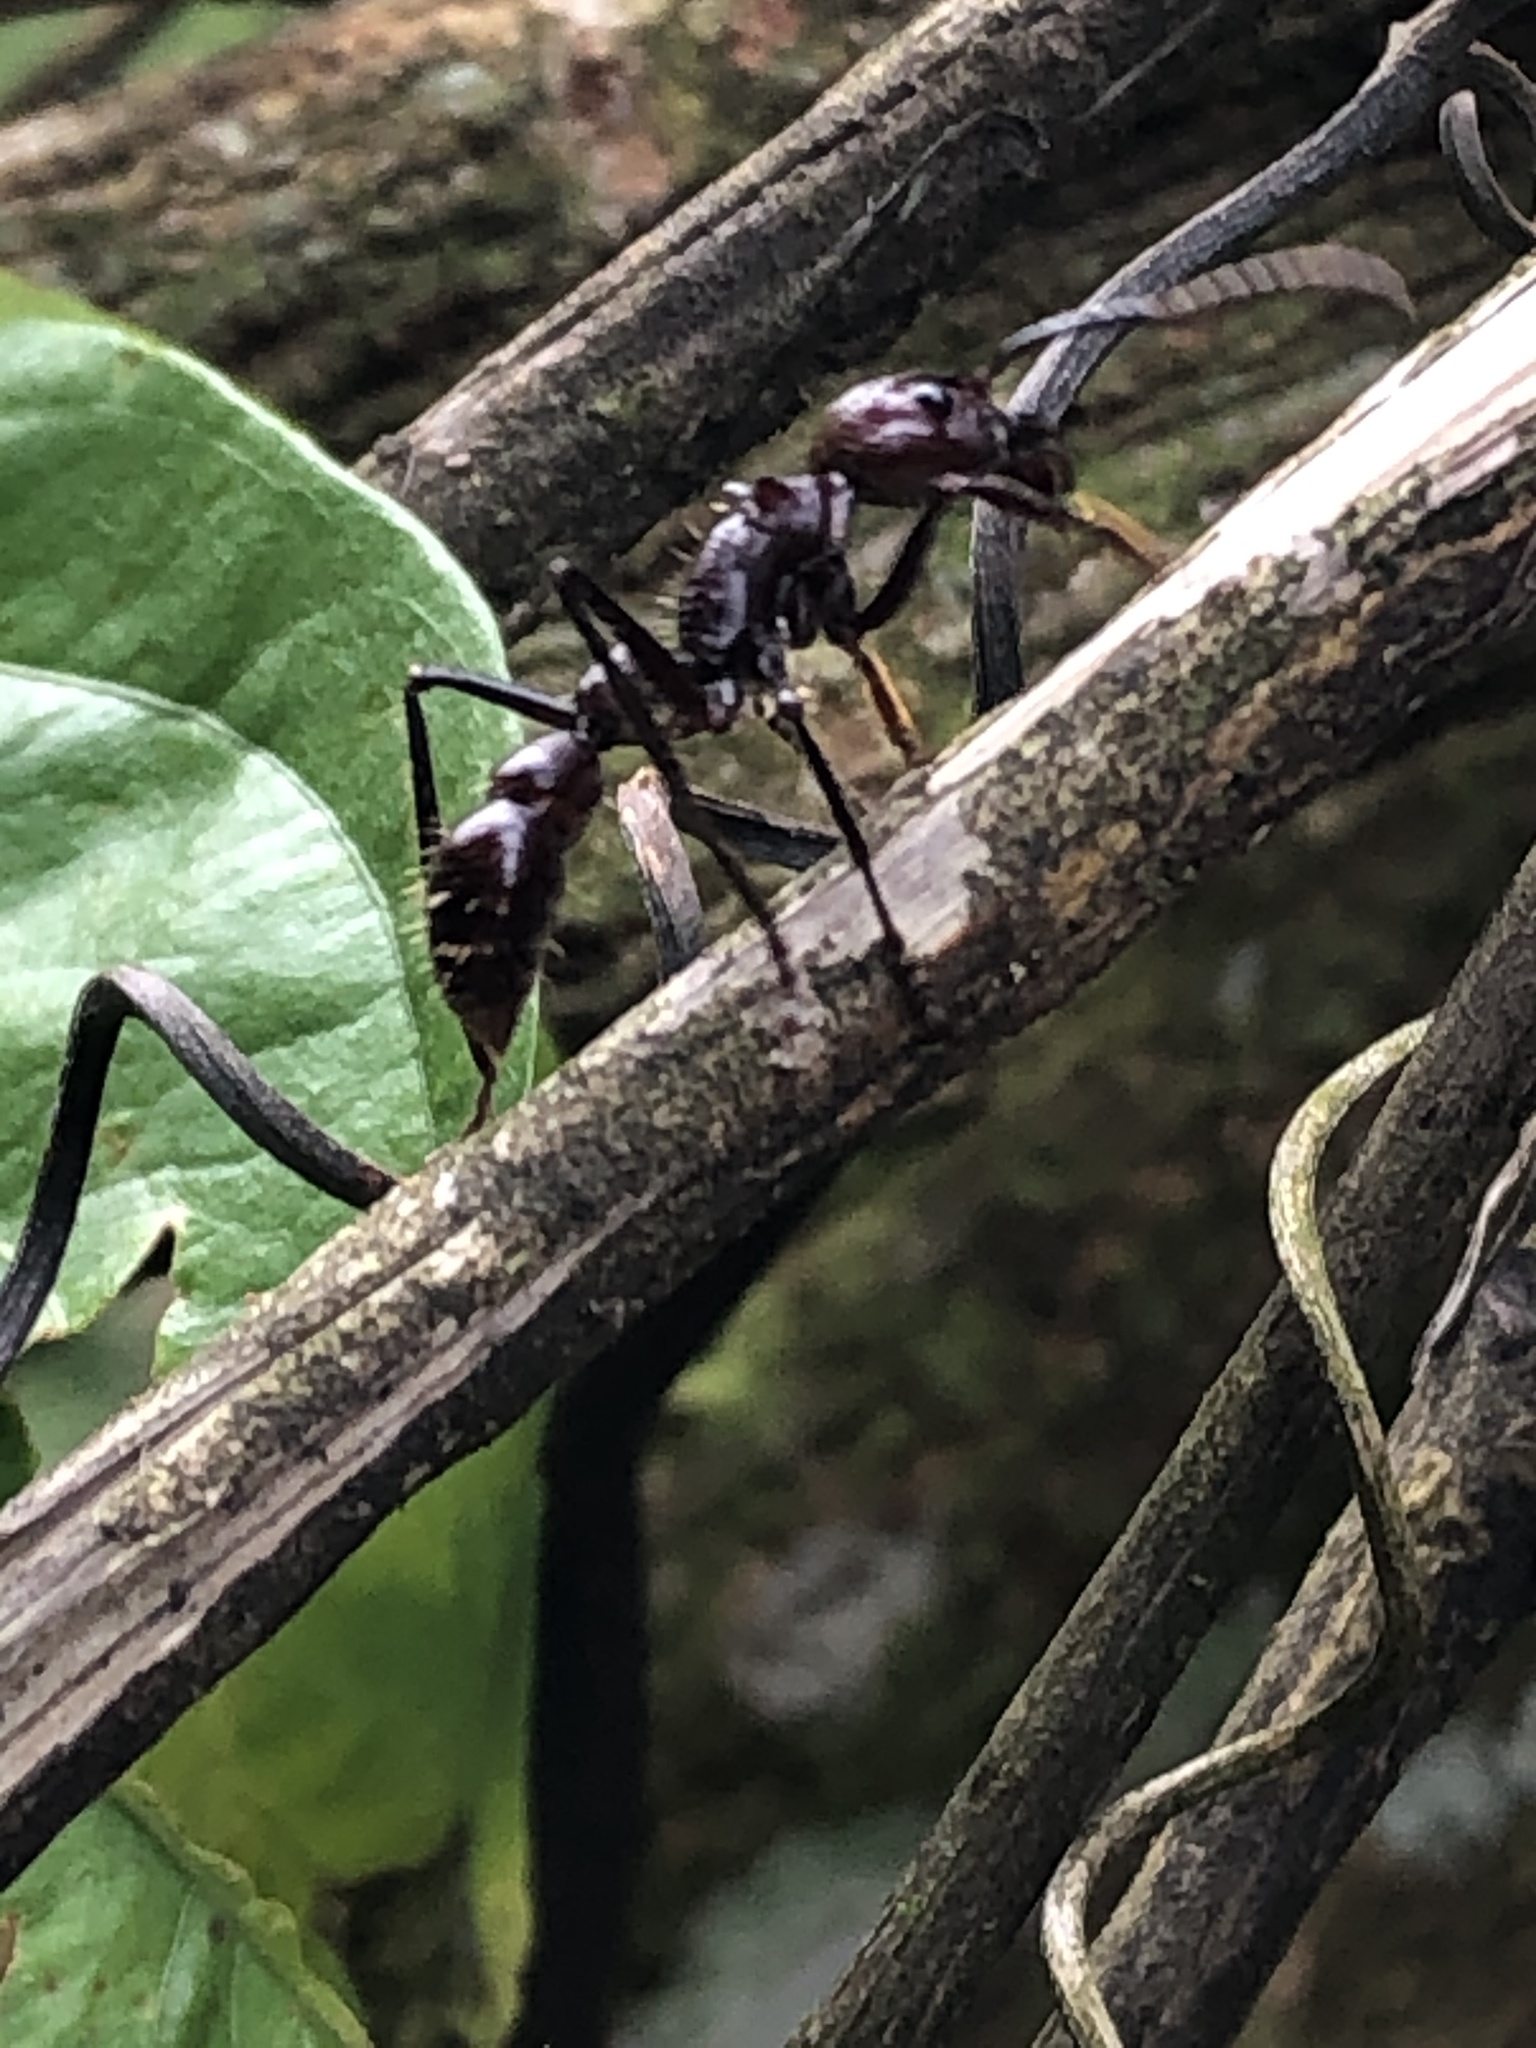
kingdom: Animalia
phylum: Arthropoda
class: Insecta
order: Hymenoptera
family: Formicidae
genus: Paraponera
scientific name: Paraponera clavata
